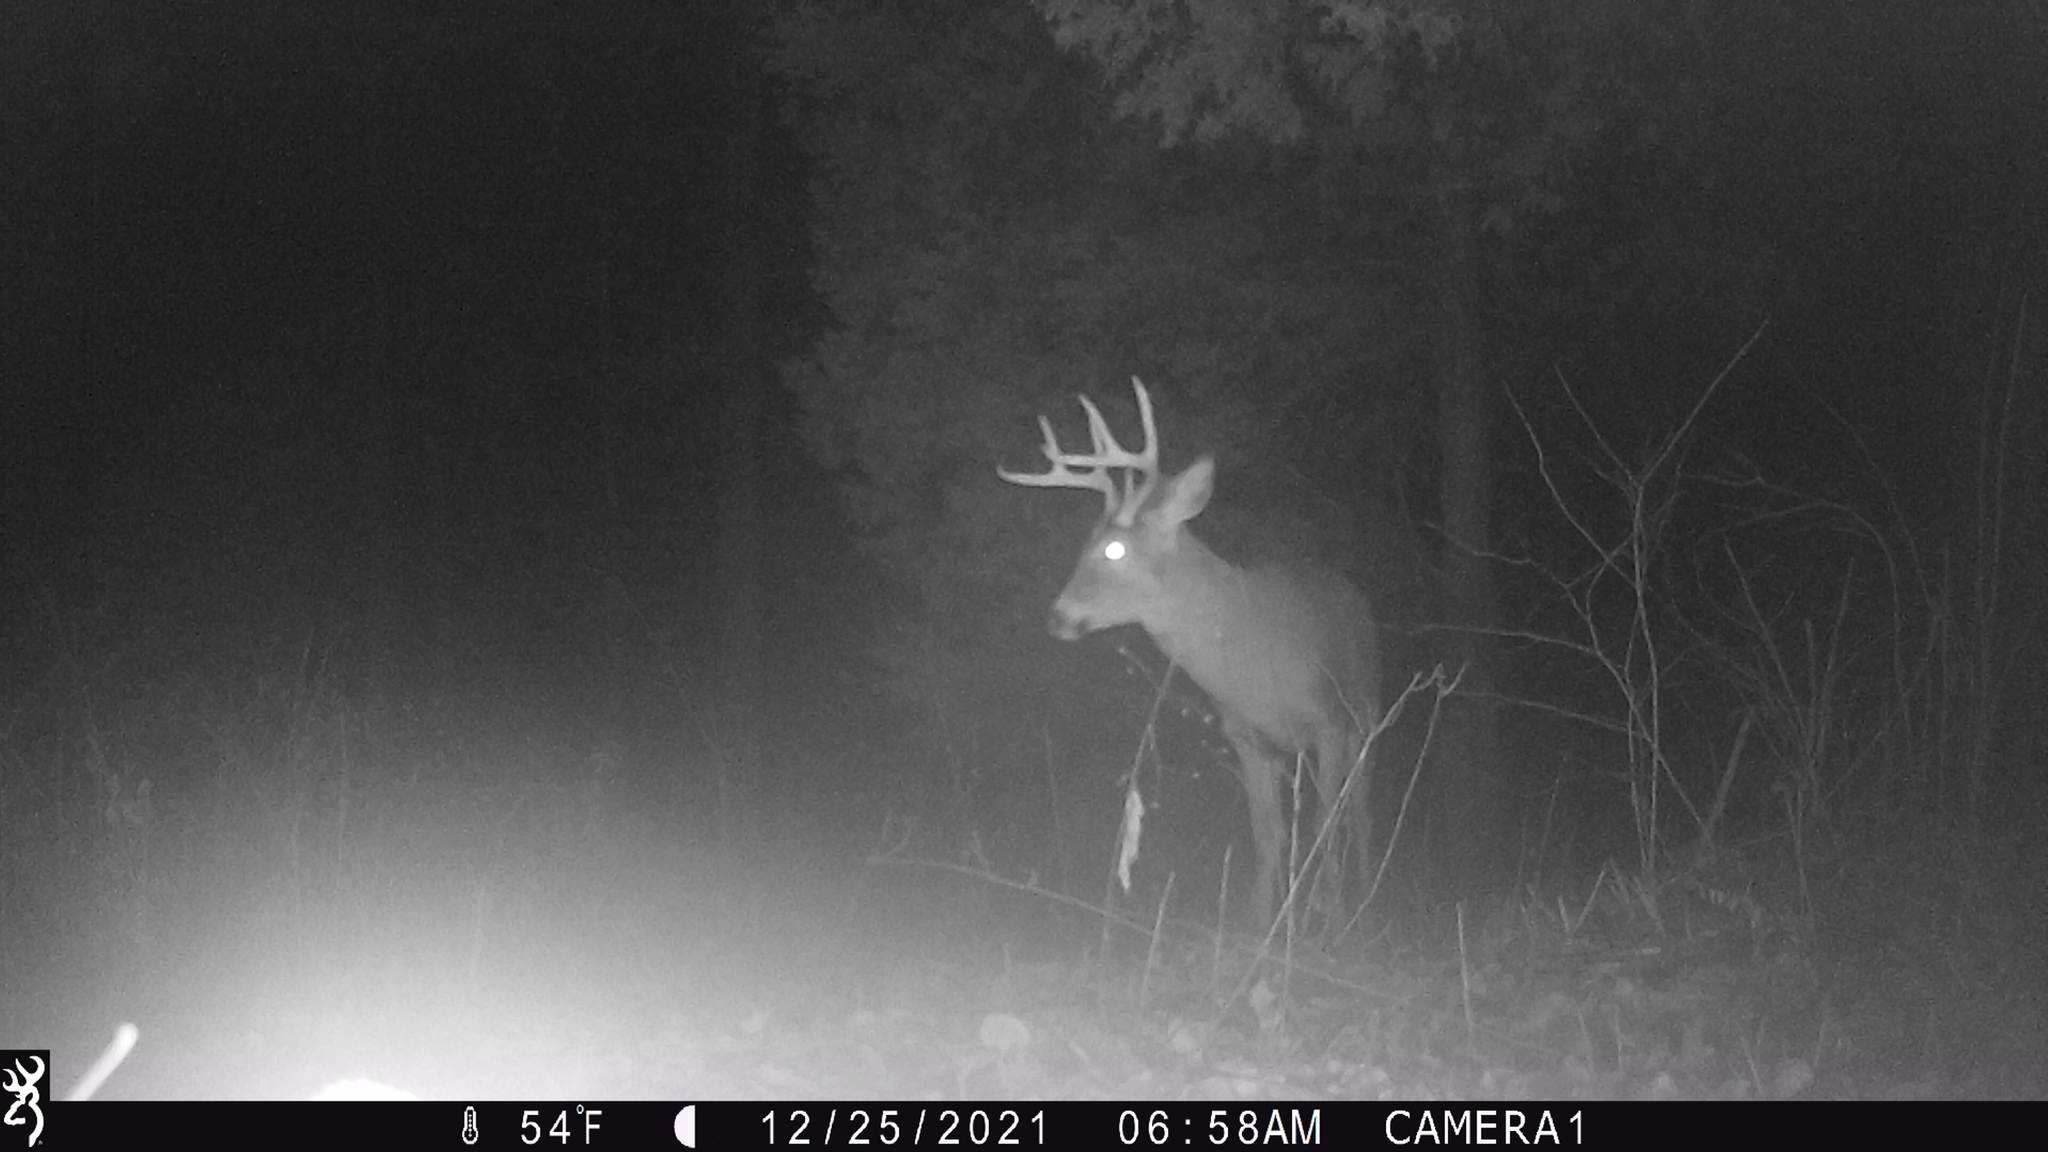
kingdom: Animalia
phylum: Chordata
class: Mammalia
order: Artiodactyla
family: Cervidae
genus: Odocoileus
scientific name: Odocoileus virginianus
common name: White-tailed deer
